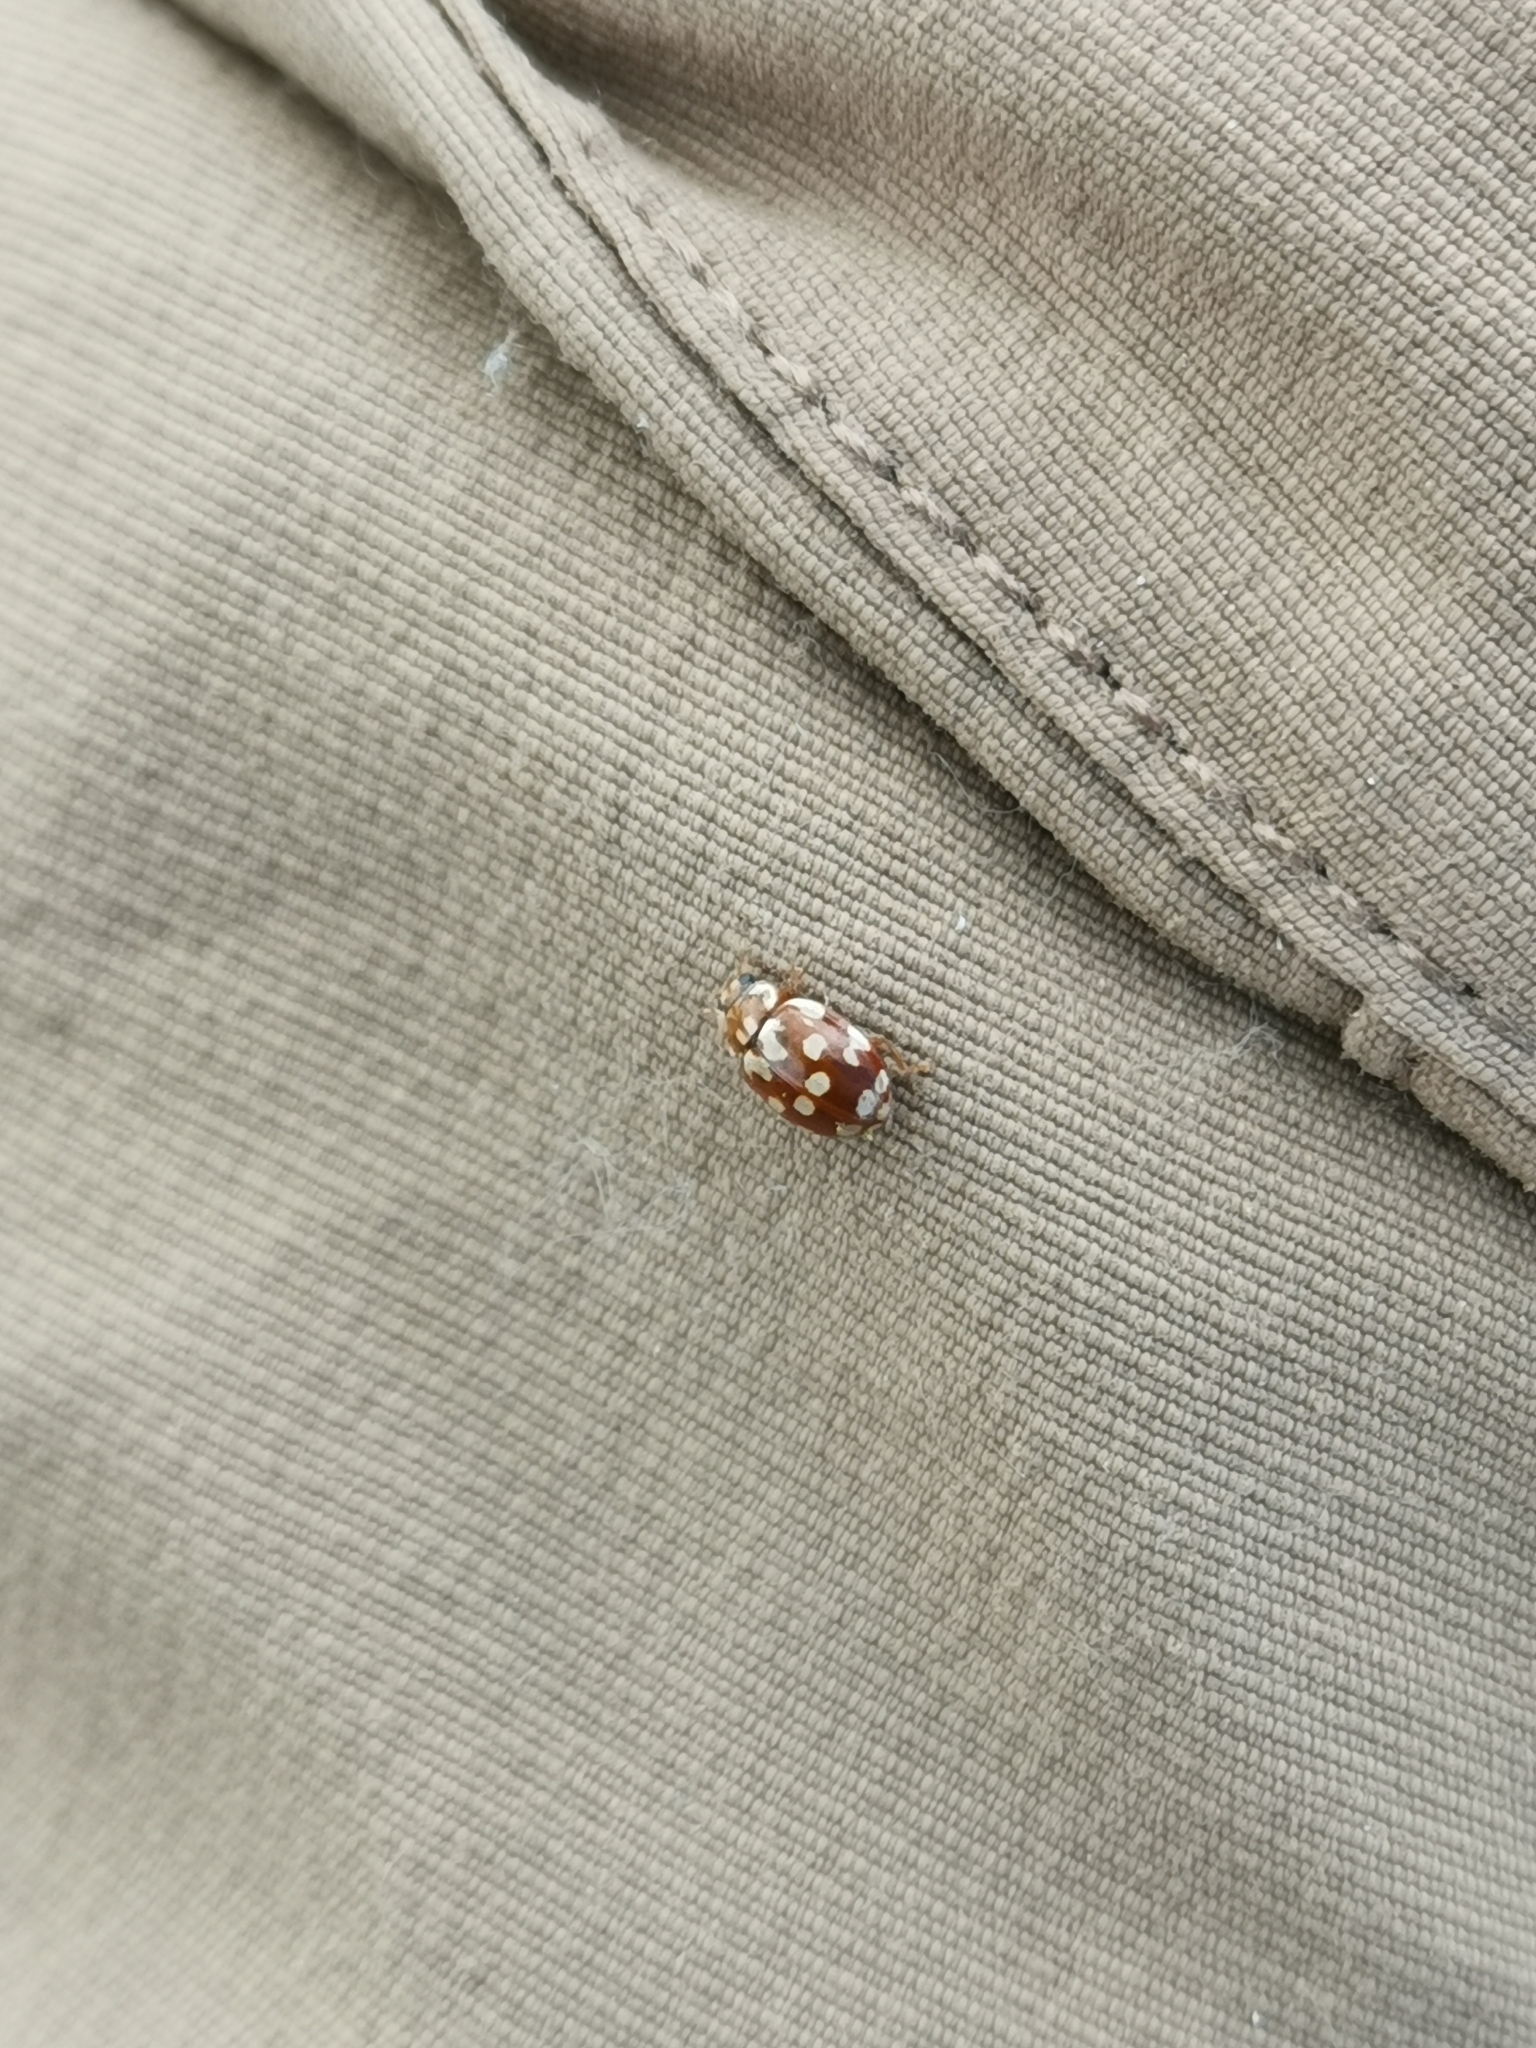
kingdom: Animalia
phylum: Arthropoda
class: Insecta
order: Coleoptera
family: Coccinellidae
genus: Myrrha
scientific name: Myrrha octodecimguttata
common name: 18-spot ladybird
